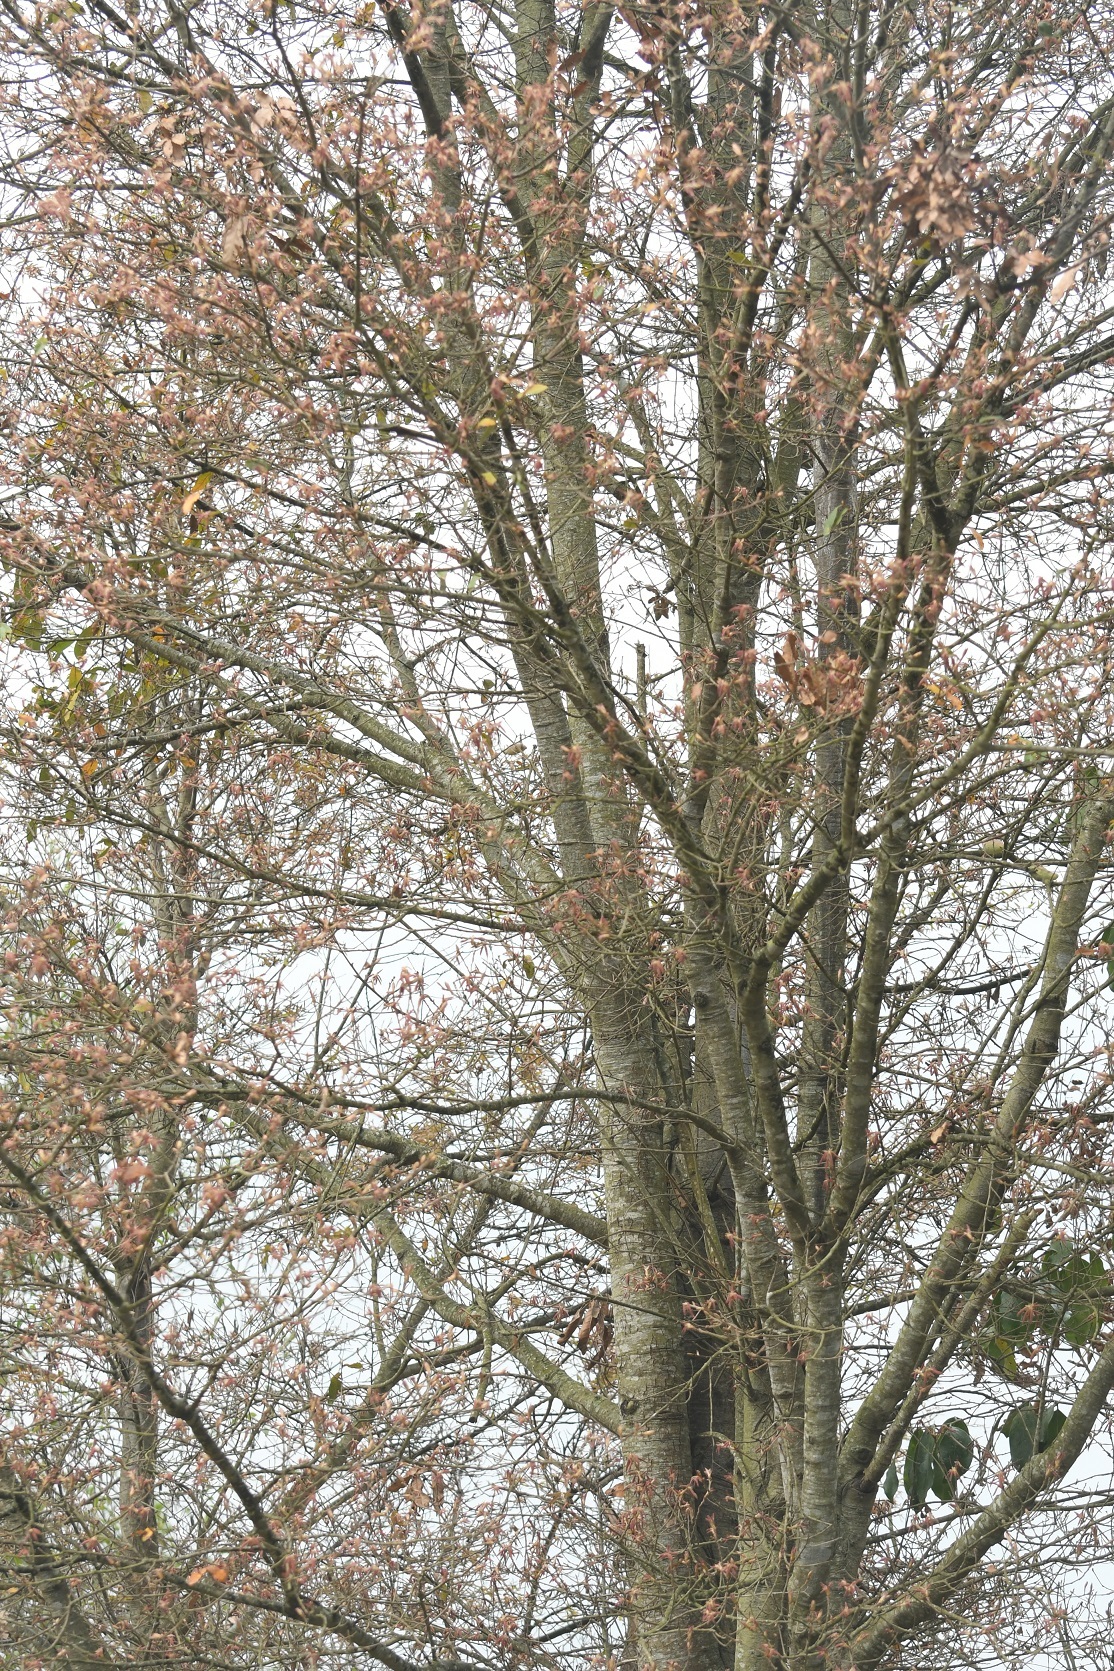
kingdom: Plantae
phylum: Tracheophyta
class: Magnoliopsida
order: Fagales
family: Fagaceae
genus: Quercus
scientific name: Quercus crispipilis
